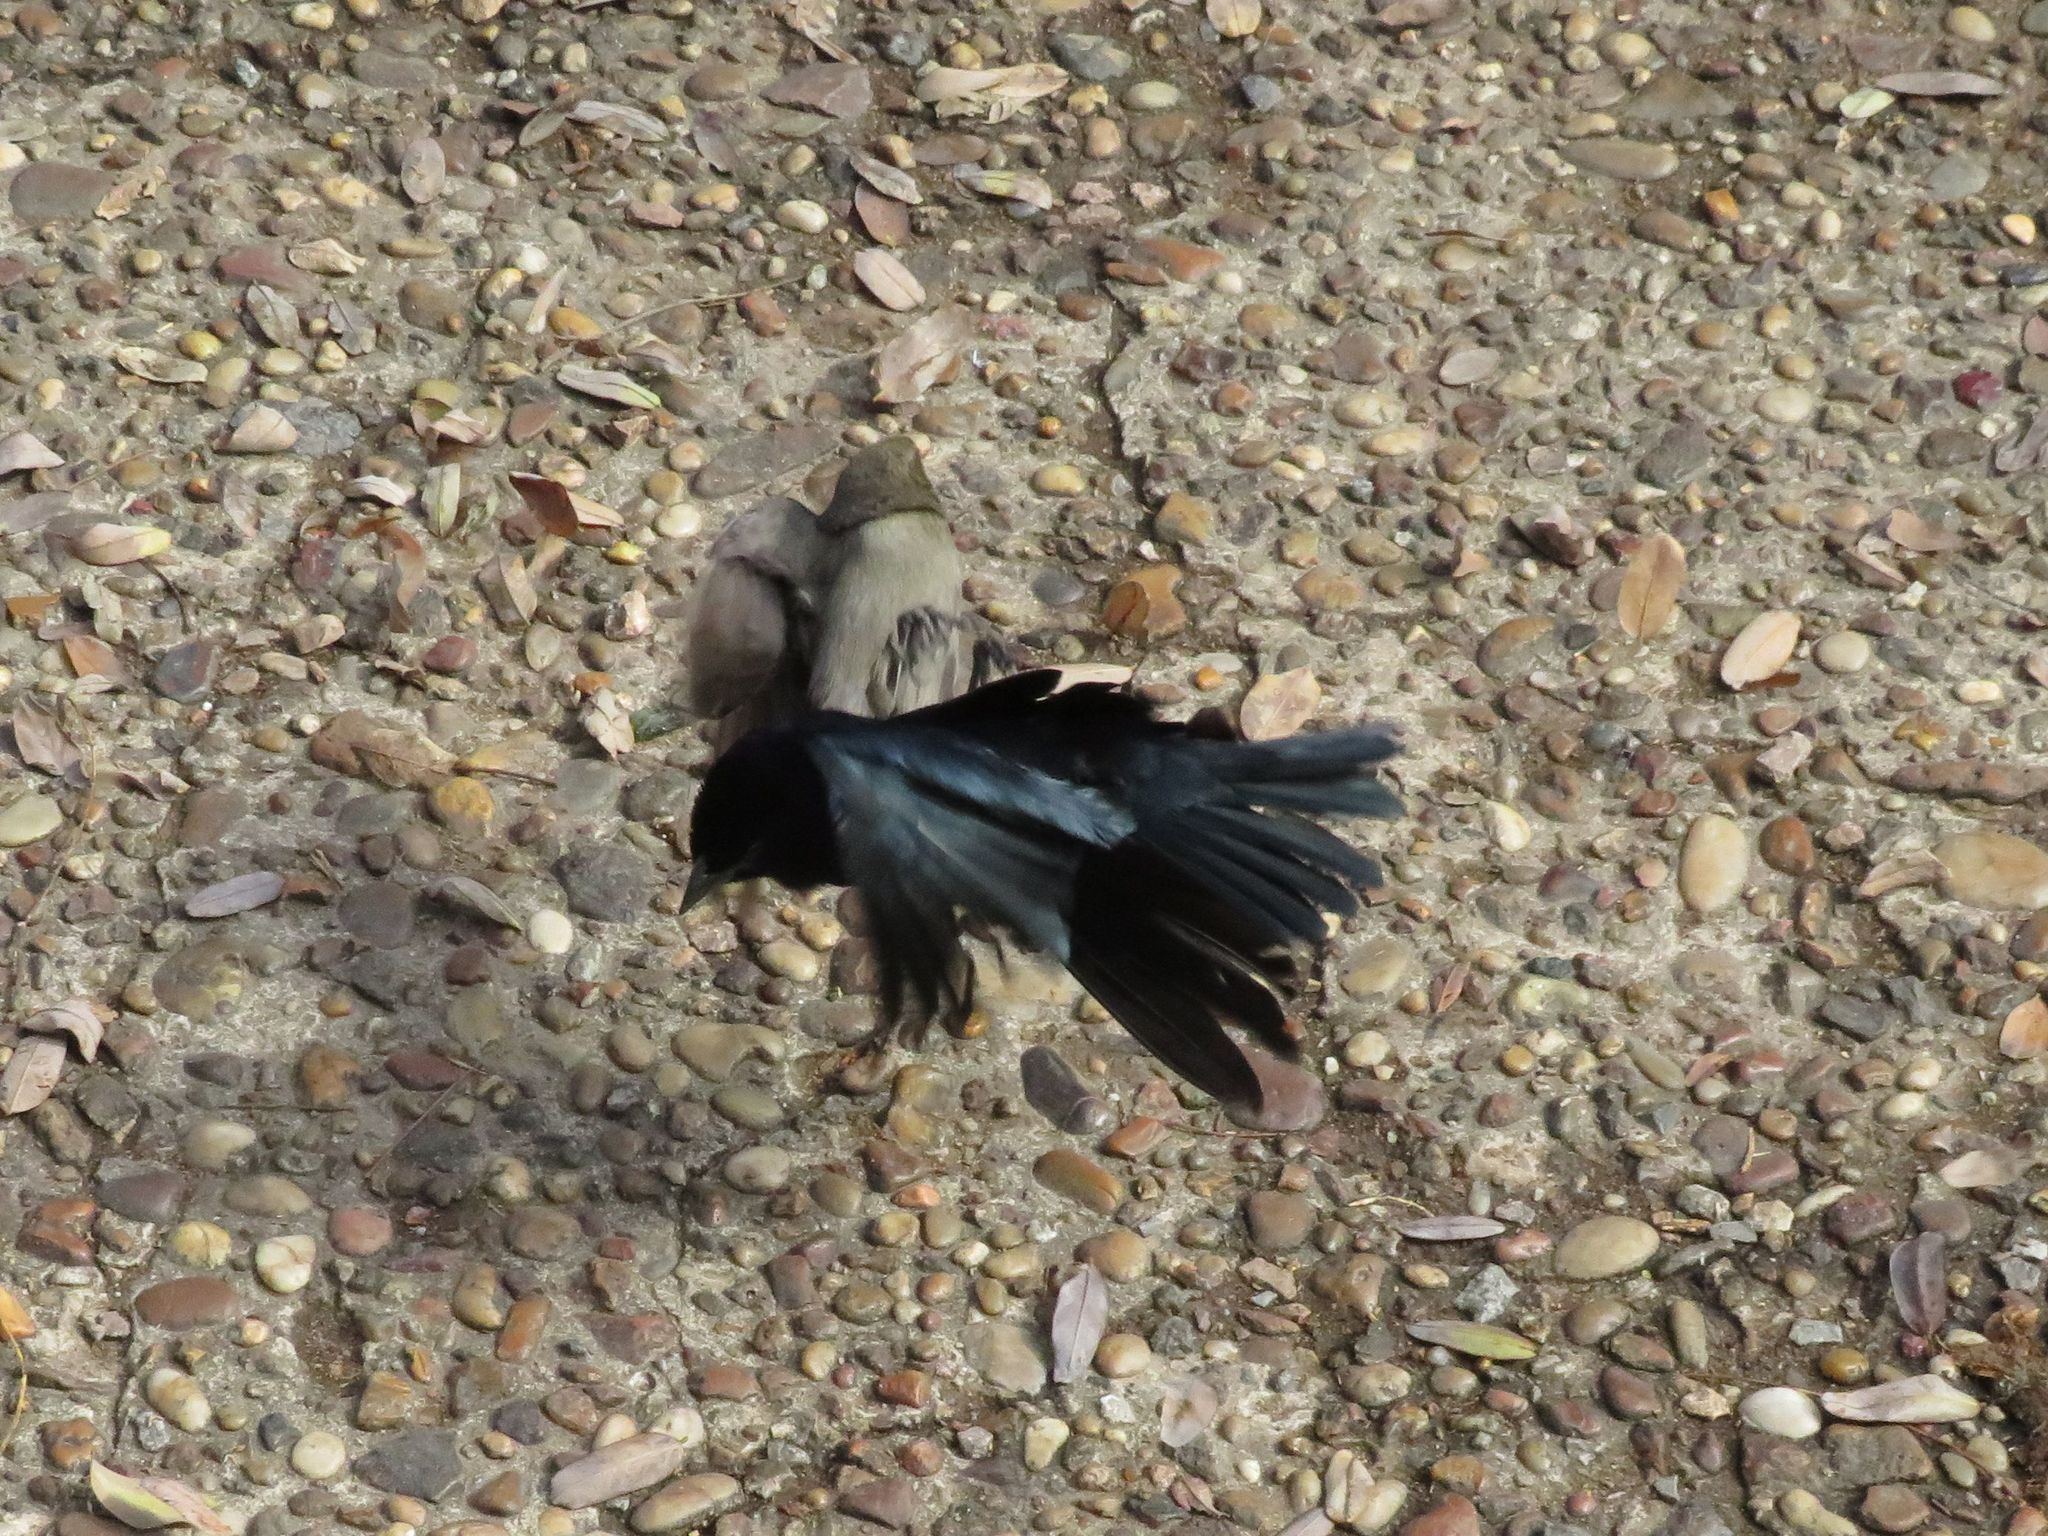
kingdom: Animalia
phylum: Chordata
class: Aves
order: Passeriformes
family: Icteridae
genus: Molothrus
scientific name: Molothrus bonariensis
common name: Shiny cowbird
